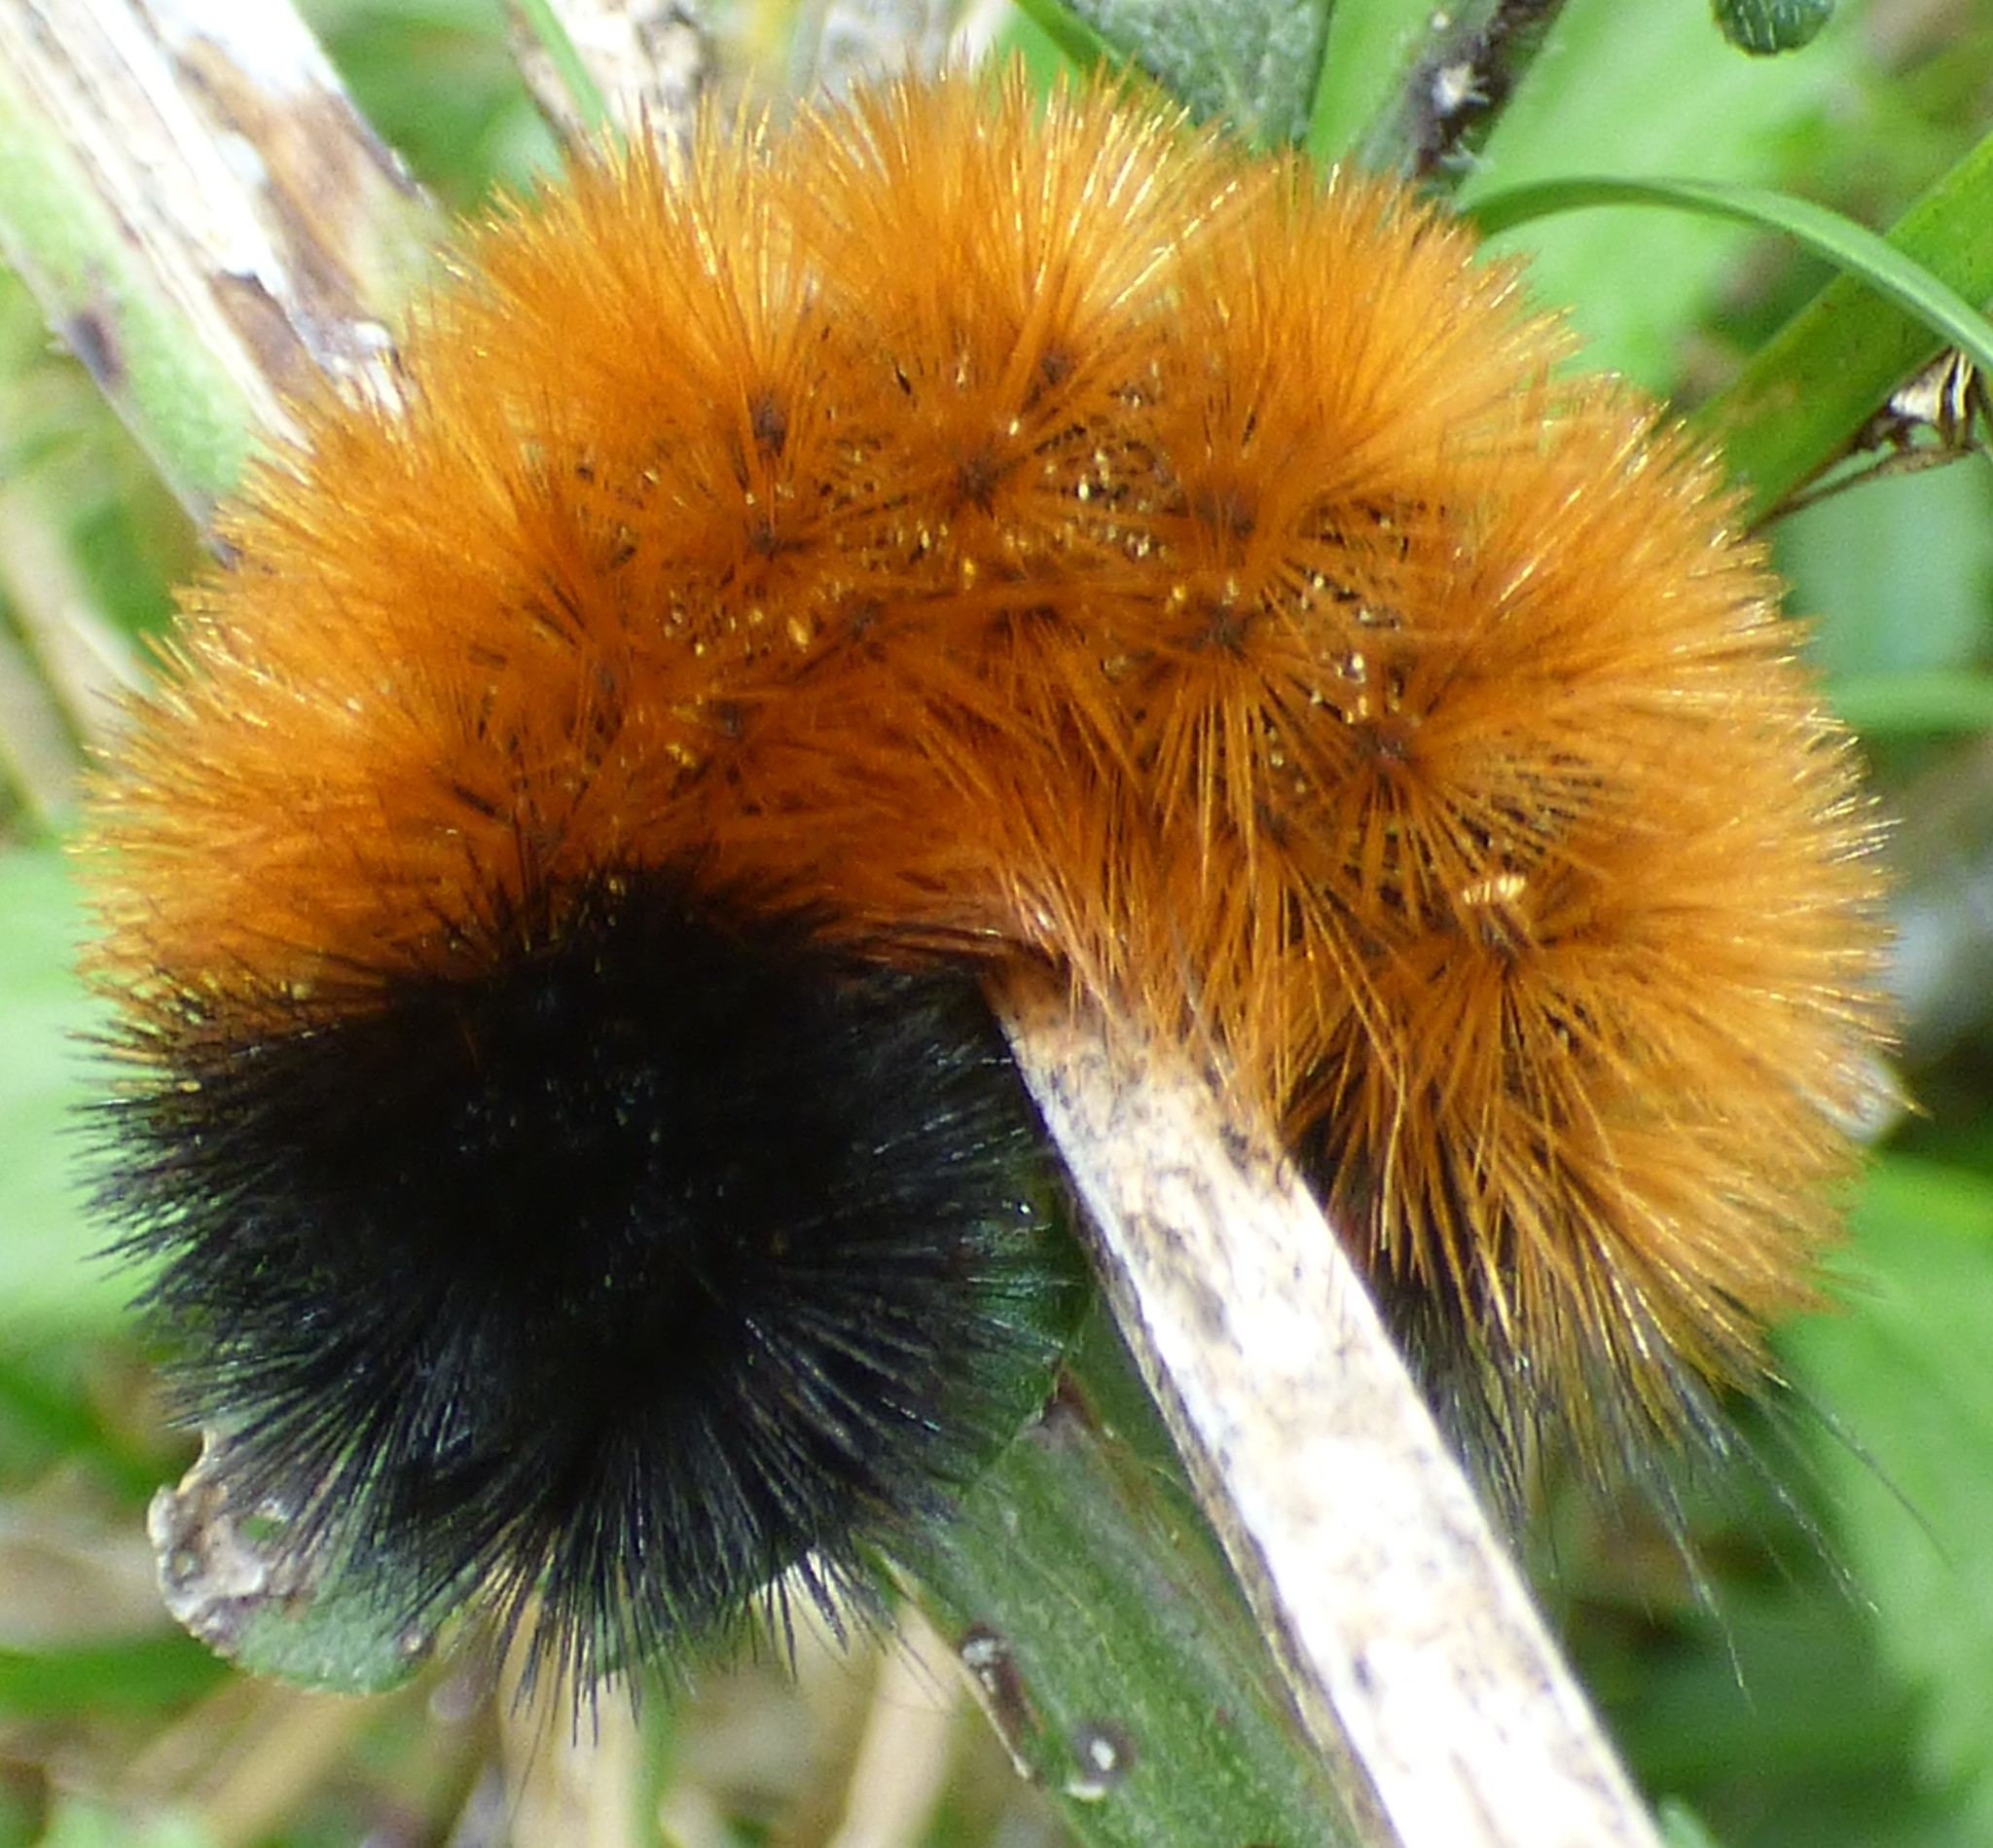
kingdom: Animalia
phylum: Arthropoda
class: Insecta
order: Lepidoptera
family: Erebidae
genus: Pyrrharctia
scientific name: Pyrrharctia isabella
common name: Isabella tiger moth
